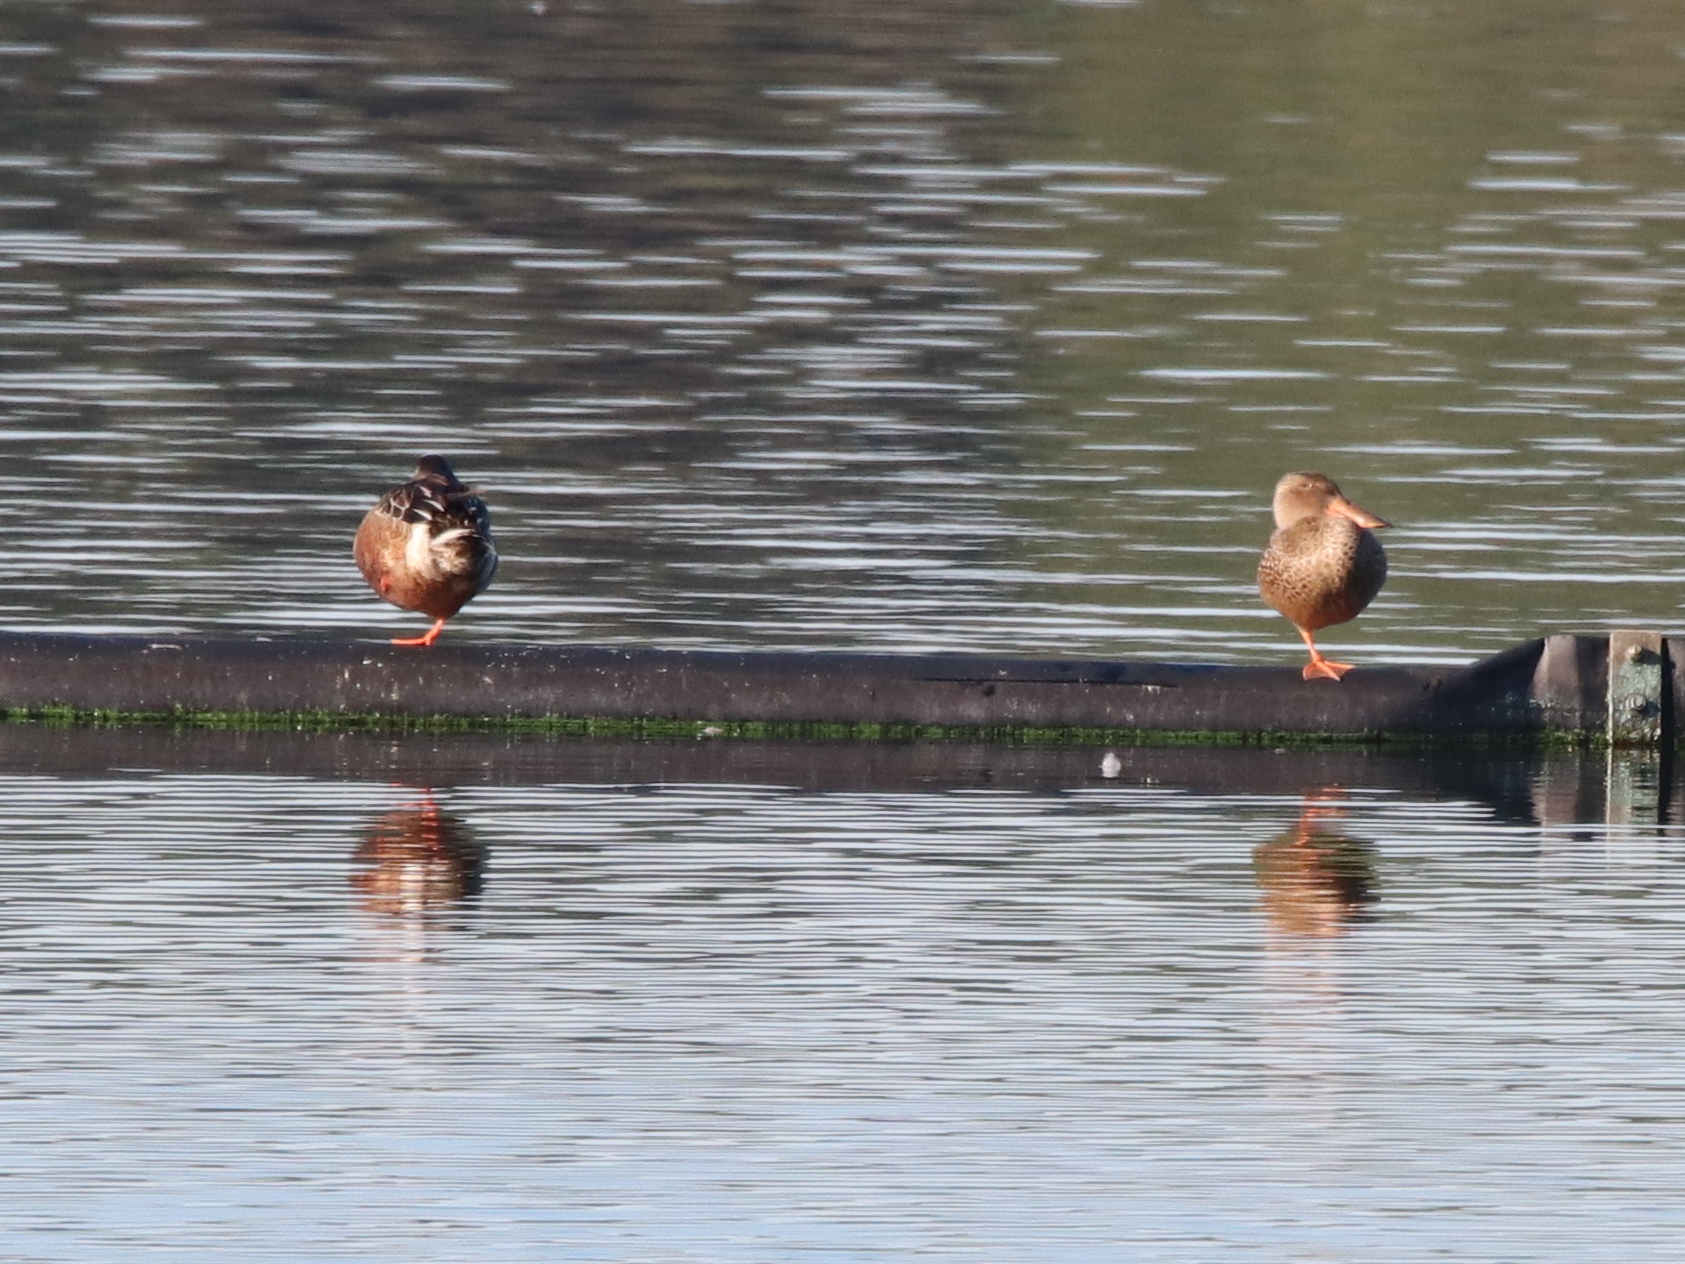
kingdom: Animalia
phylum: Chordata
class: Aves
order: Anseriformes
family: Anatidae
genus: Spatula
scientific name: Spatula clypeata
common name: Northern shoveler
